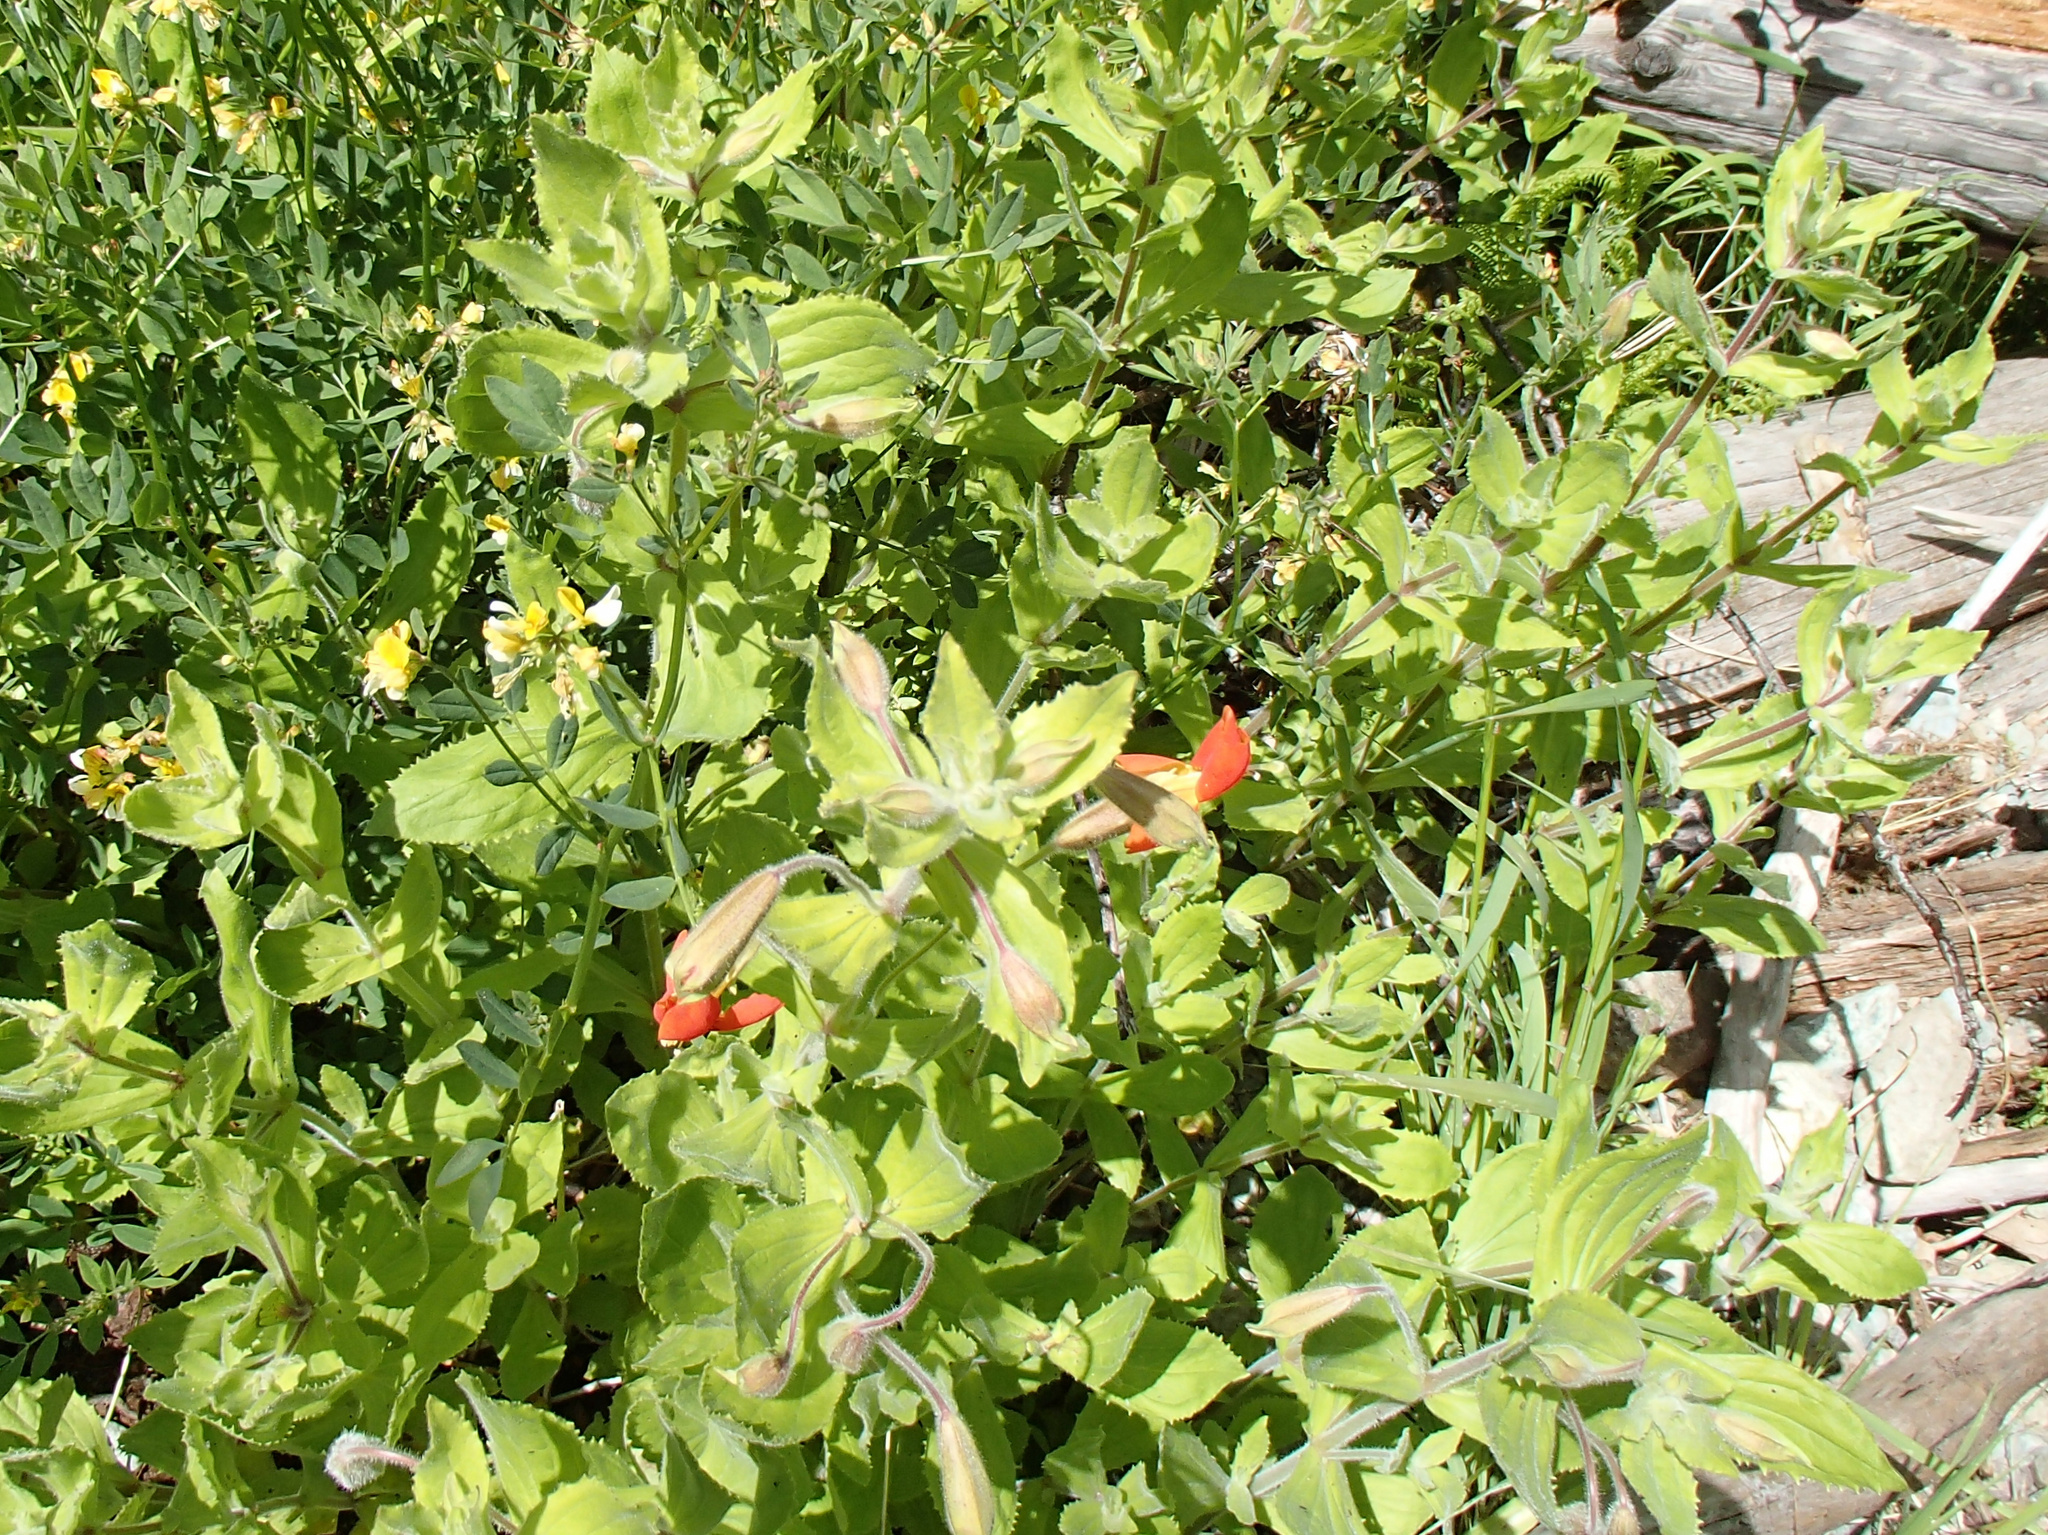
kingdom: Plantae
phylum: Tracheophyta
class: Magnoliopsida
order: Lamiales
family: Phrymaceae
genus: Erythranthe
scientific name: Erythranthe cardinalis
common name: Scarlet monkey-flower
